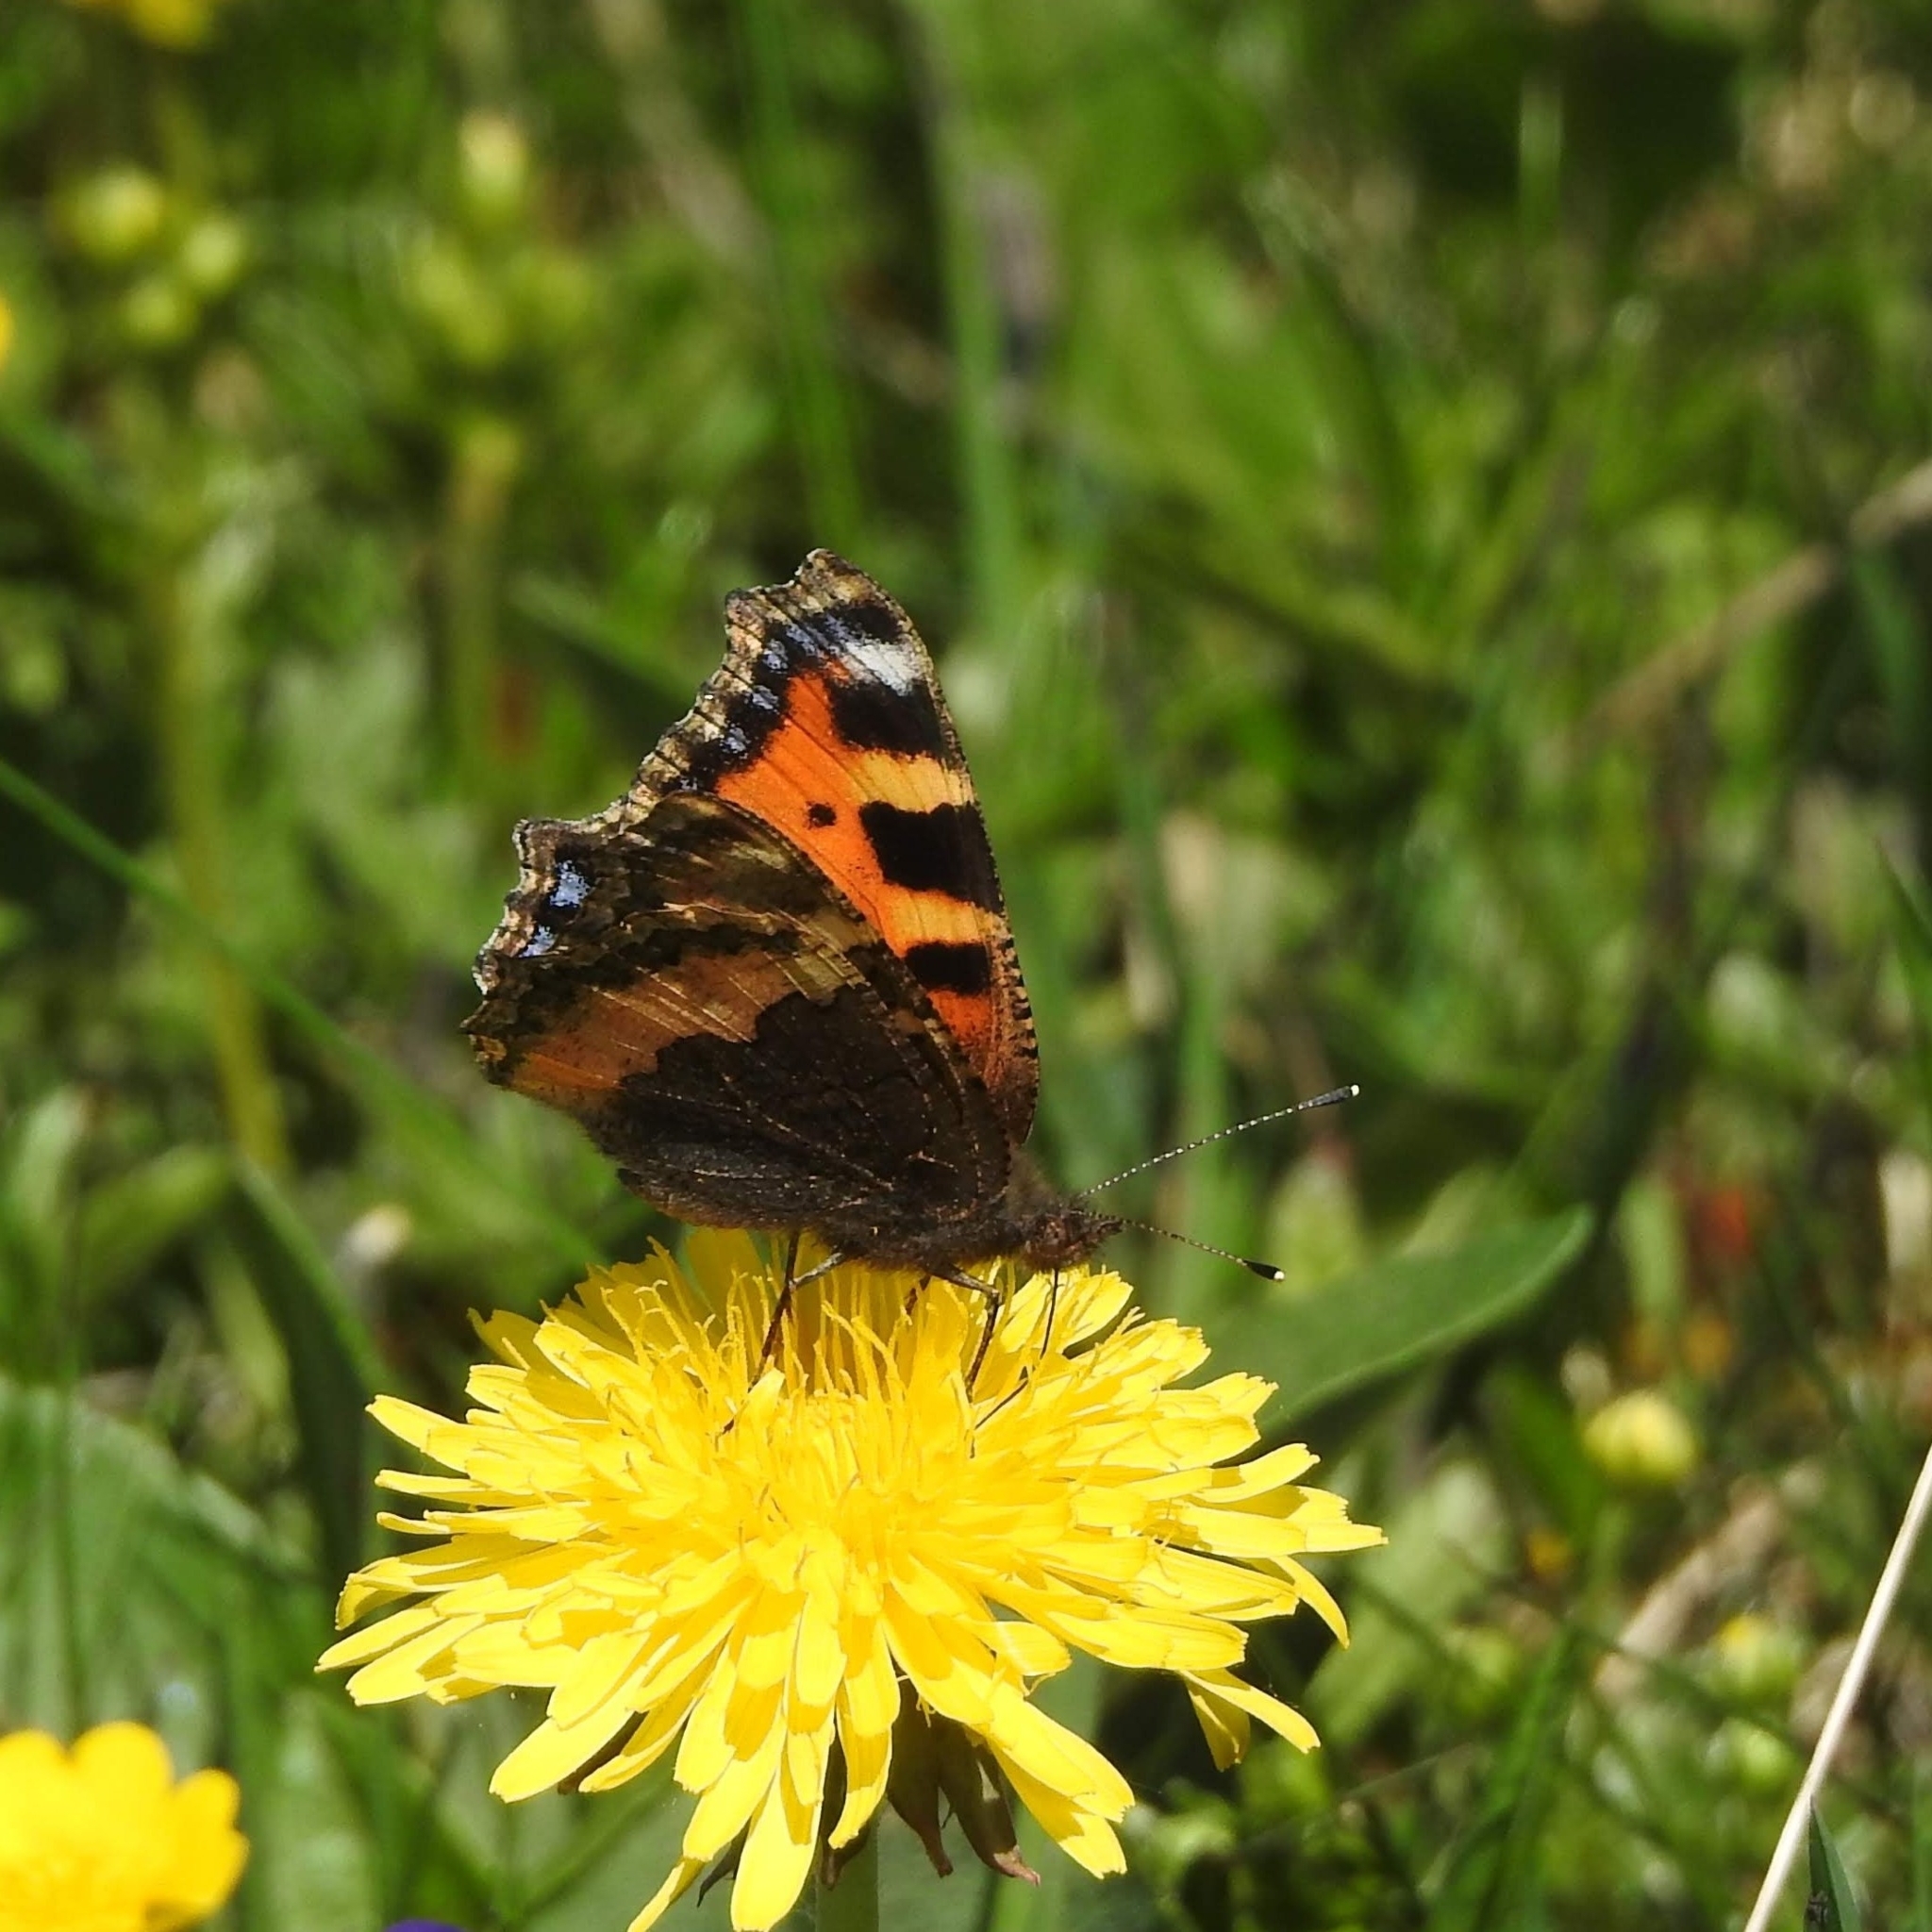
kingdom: Animalia
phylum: Arthropoda
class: Insecta
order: Lepidoptera
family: Nymphalidae
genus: Aglais
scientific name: Aglais urticae
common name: Small tortoiseshell
